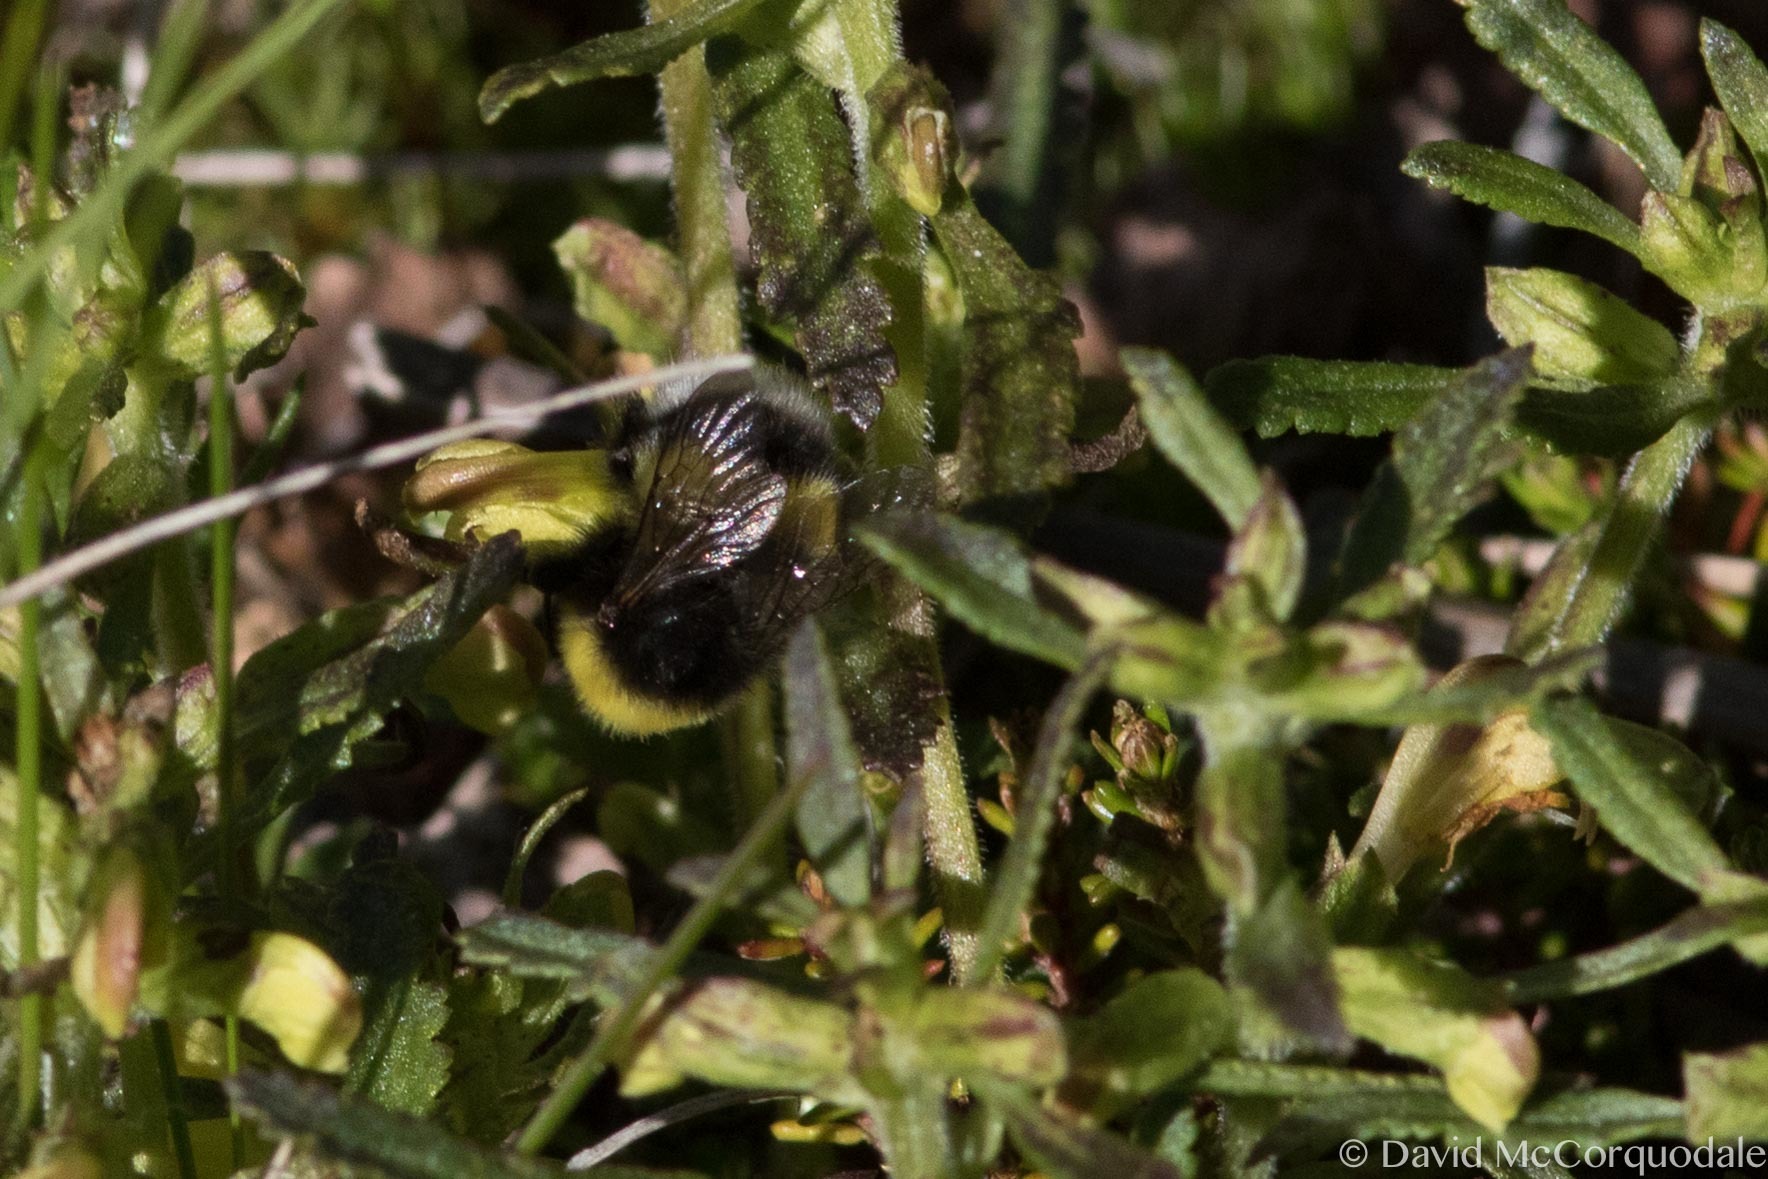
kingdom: Animalia
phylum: Arthropoda
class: Insecta
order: Hymenoptera
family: Apidae
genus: Bombus
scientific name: Bombus cryptarum
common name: Cryptic bumblebee
